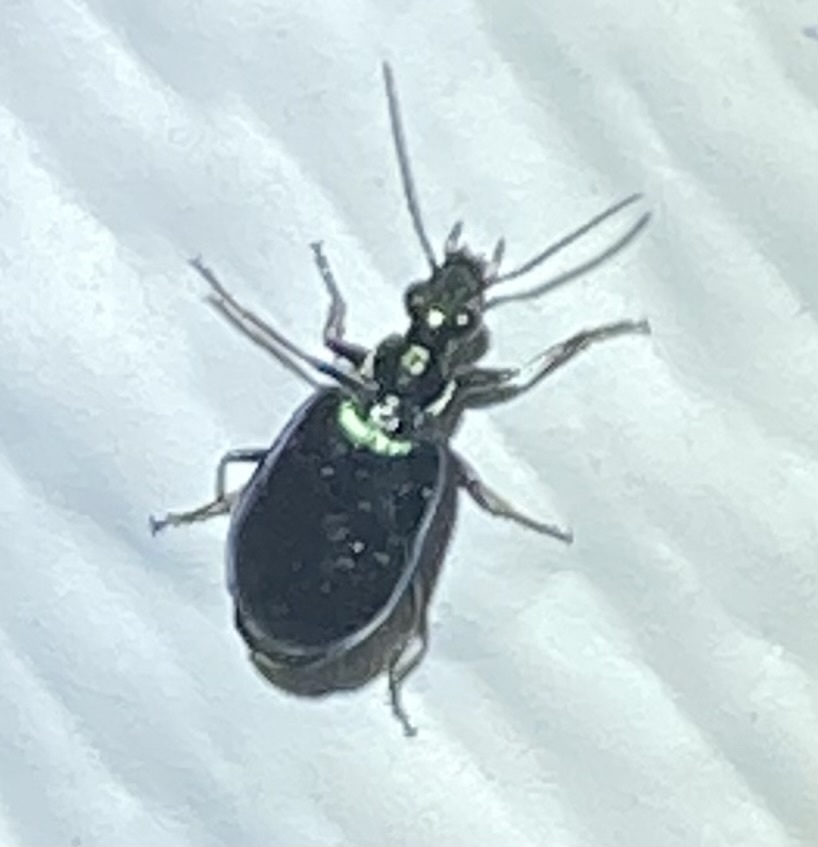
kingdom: Animalia
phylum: Arthropoda
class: Insecta
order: Coleoptera
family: Carabidae
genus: Lebia
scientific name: Lebia viridis
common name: Flower lebia beetle
